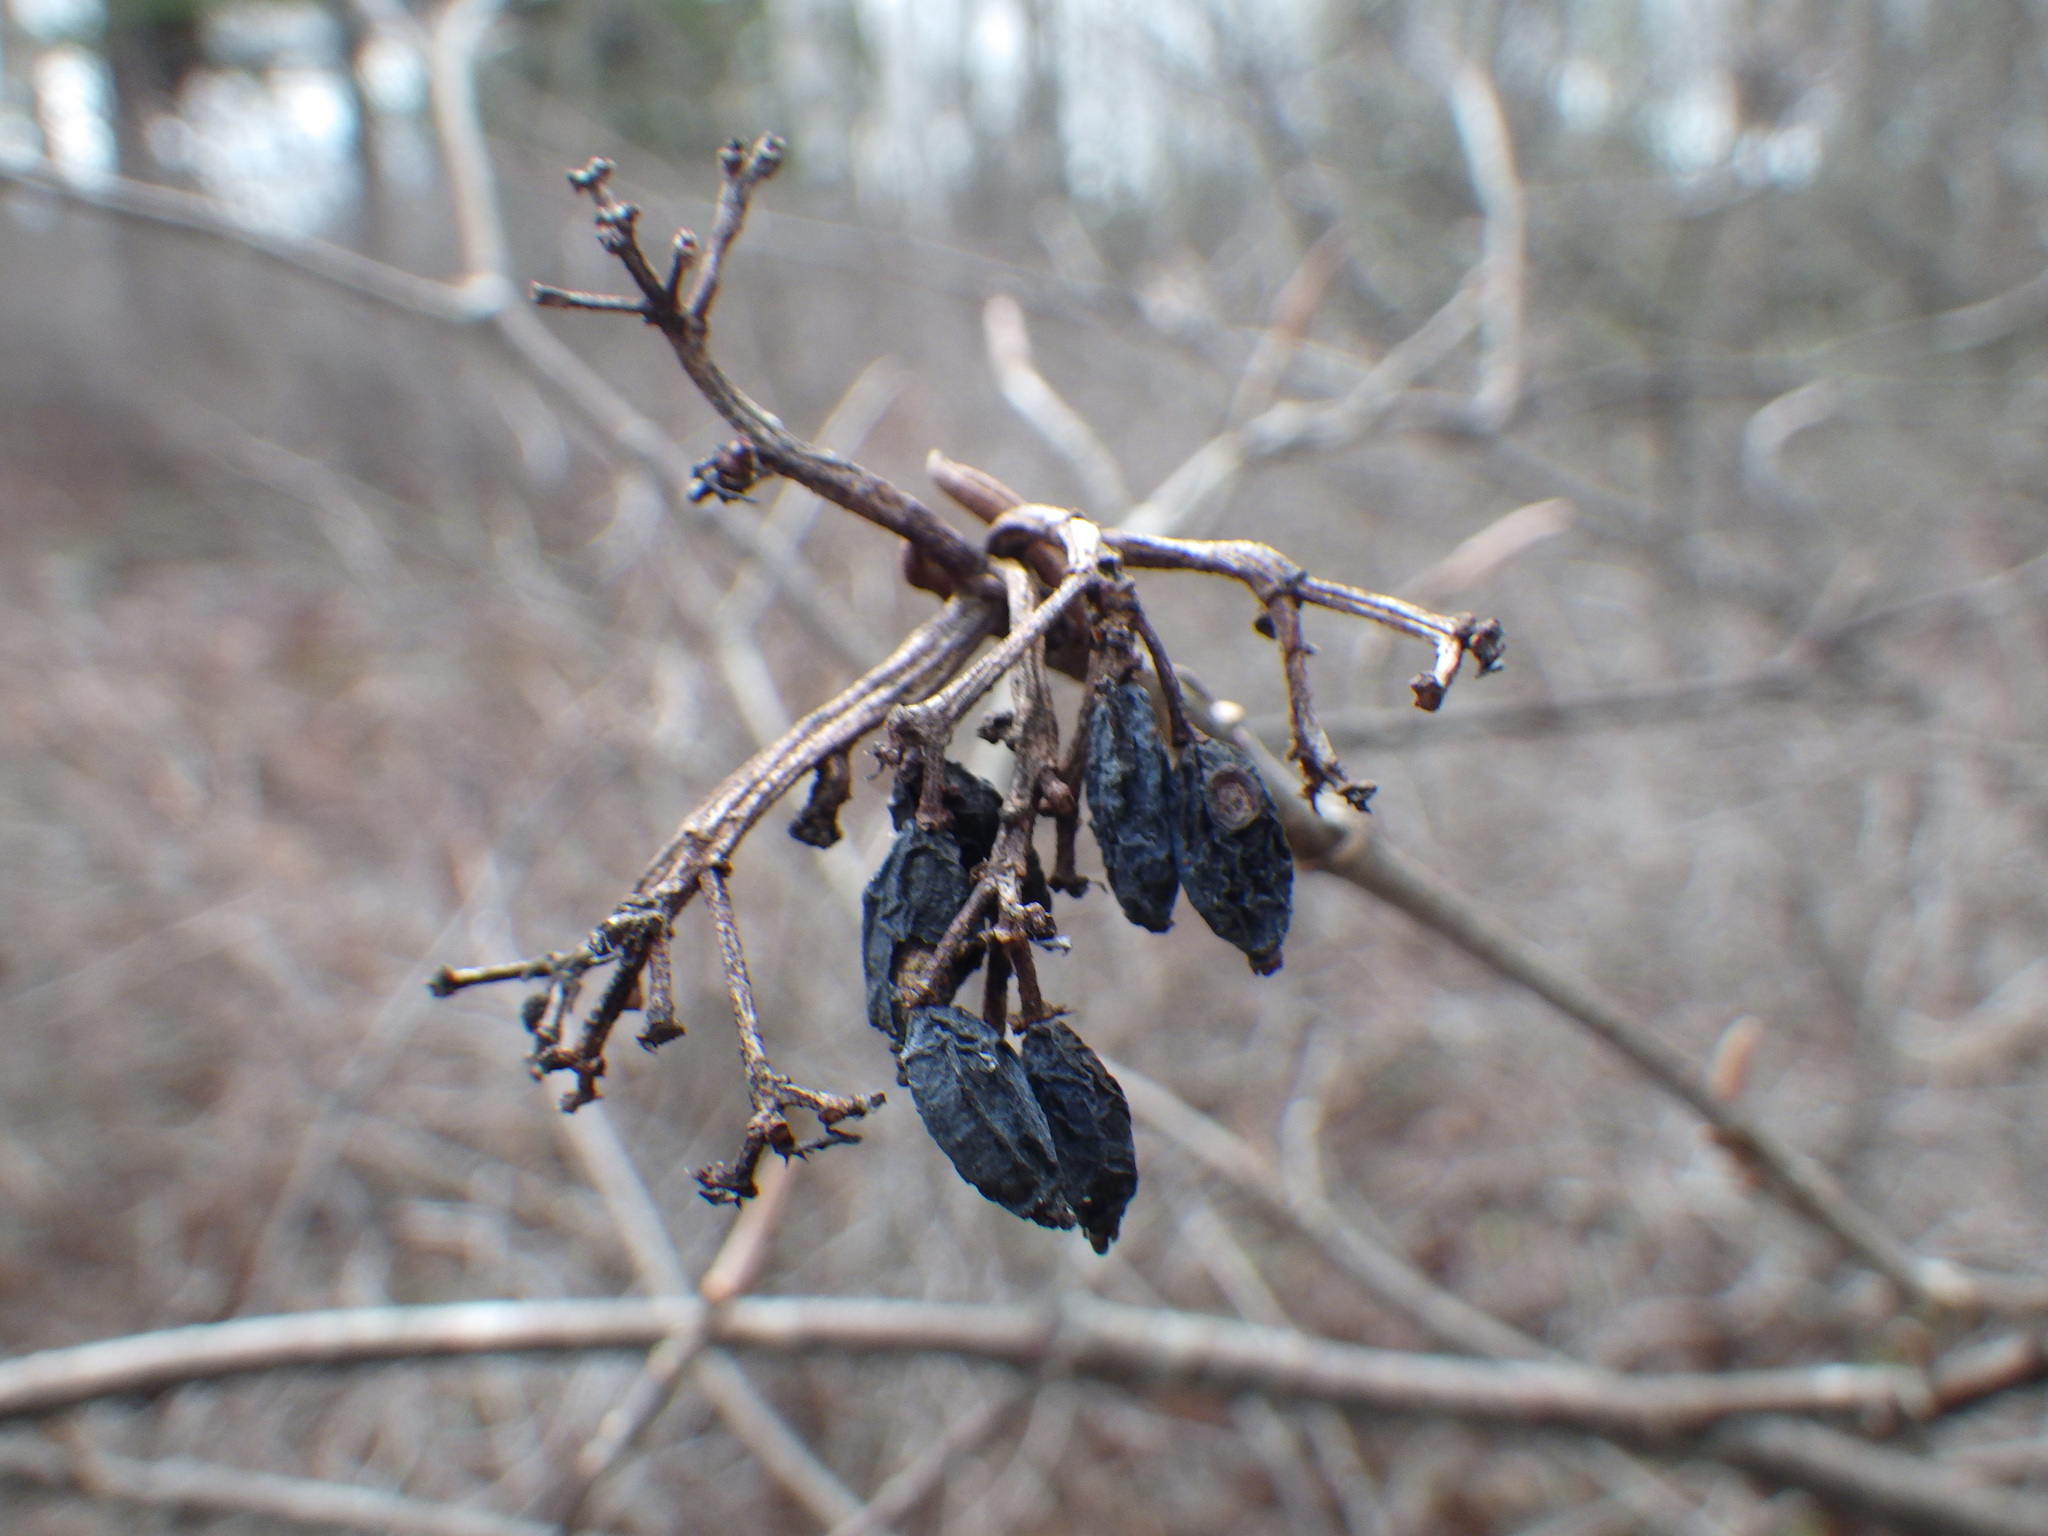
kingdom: Plantae
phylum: Tracheophyta
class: Magnoliopsida
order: Dipsacales
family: Viburnaceae
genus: Viburnum
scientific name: Viburnum cassinoides
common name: Swamp haw
